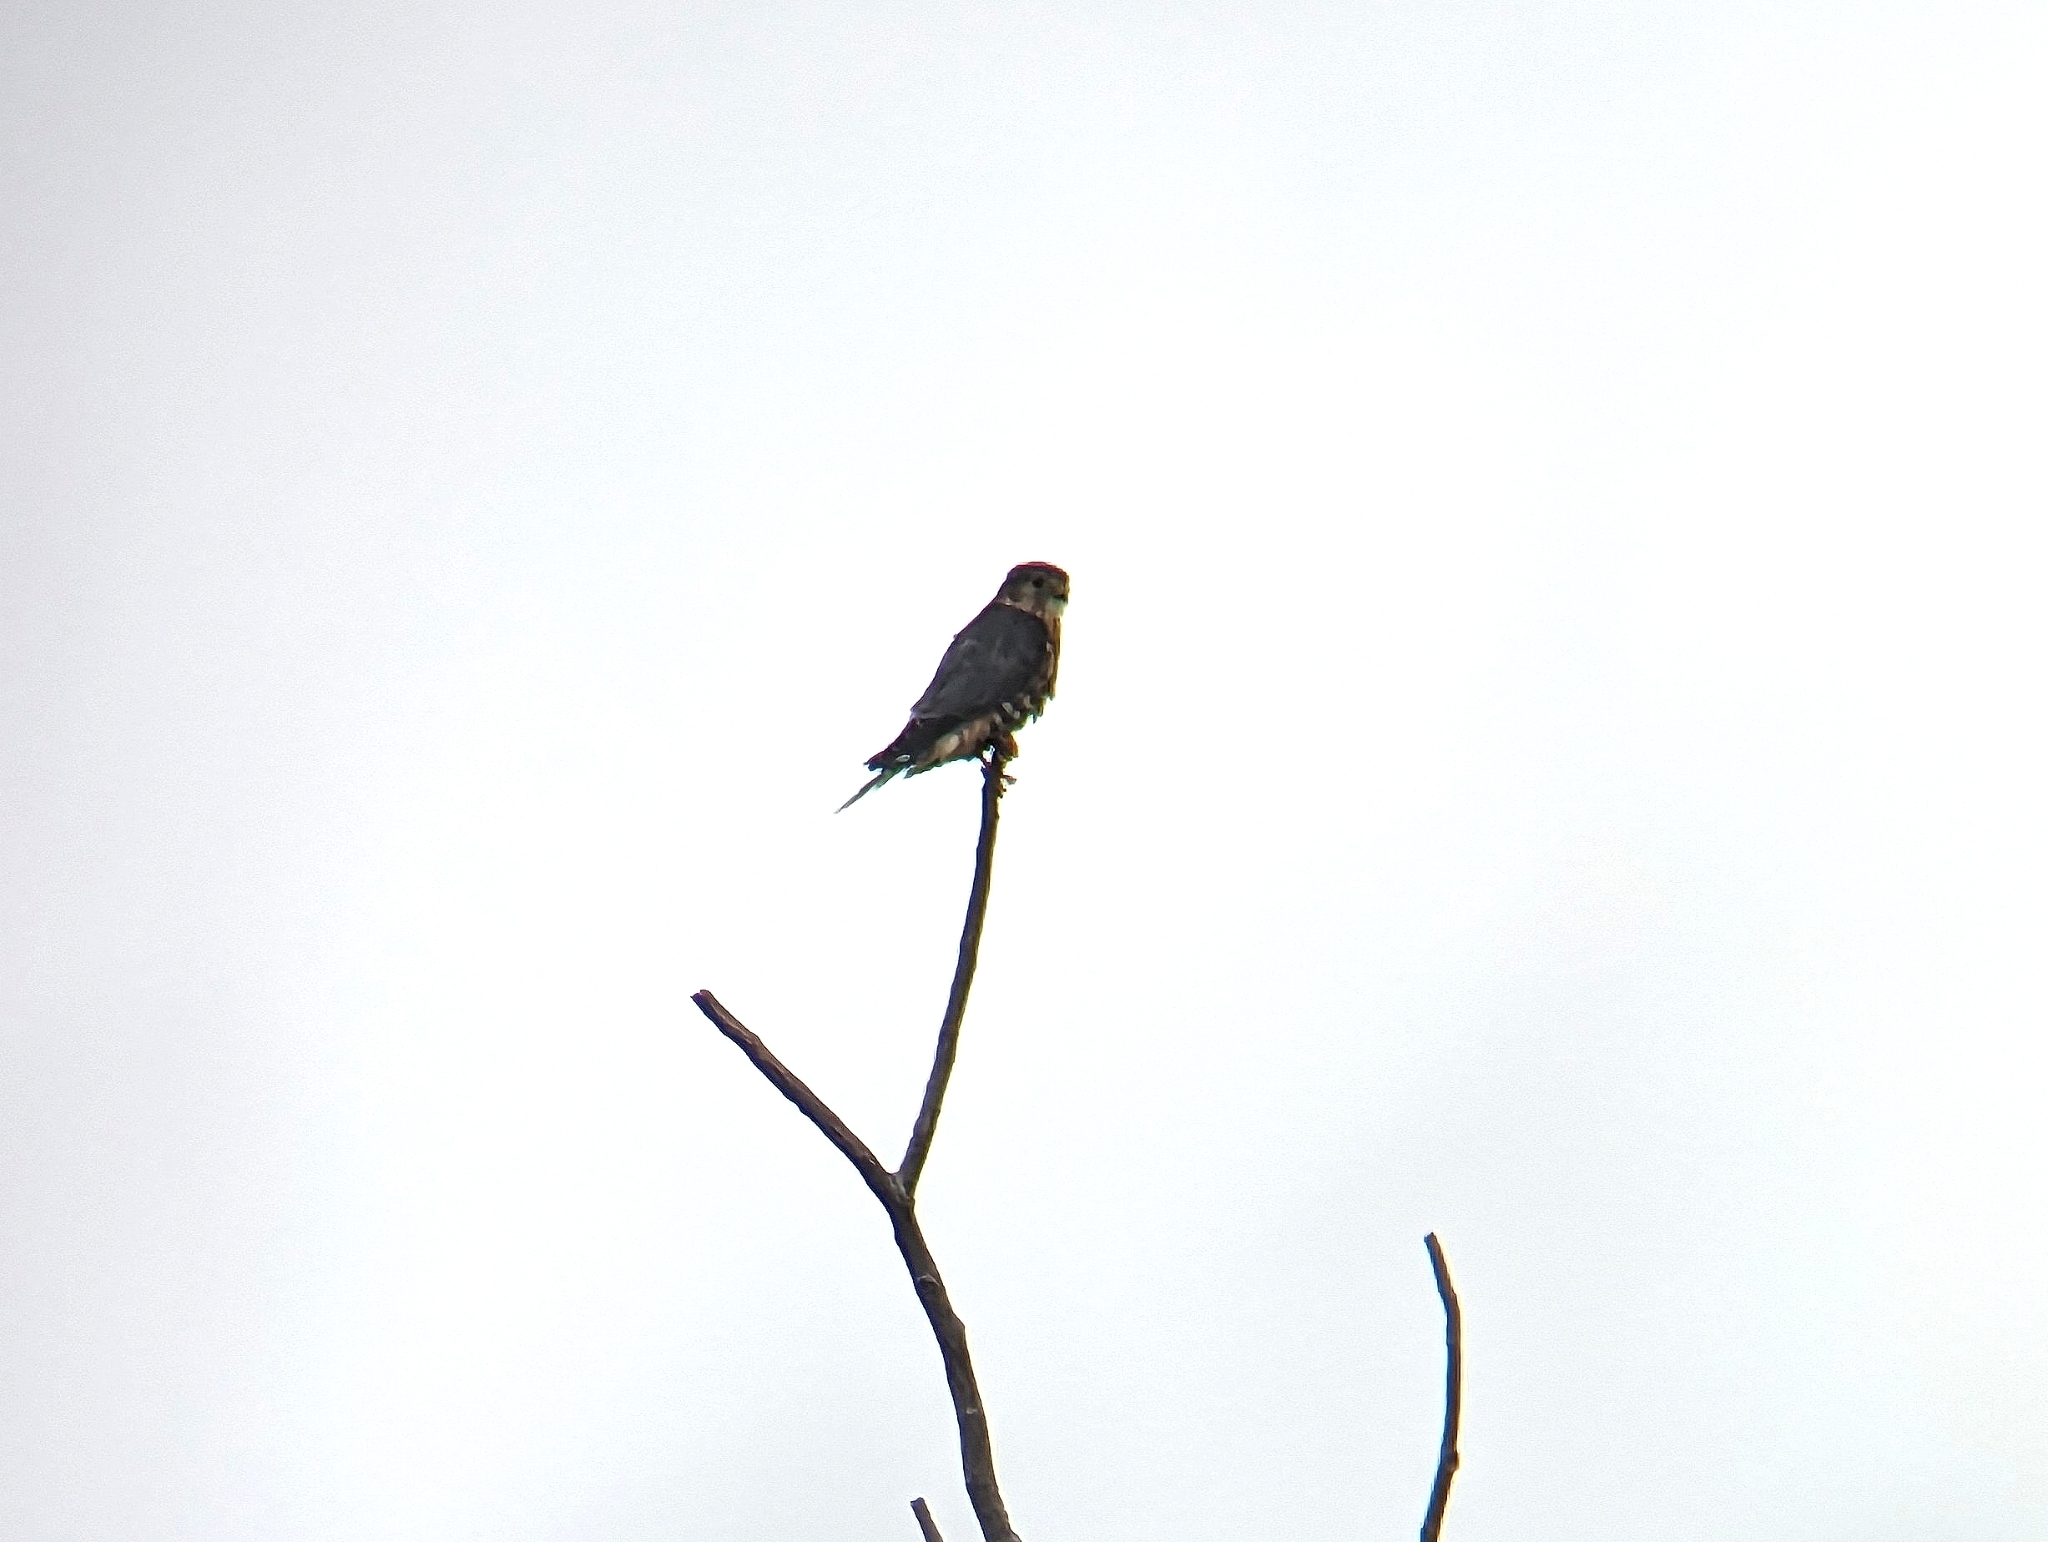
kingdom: Animalia
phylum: Chordata
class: Aves
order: Falconiformes
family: Falconidae
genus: Falco
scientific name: Falco columbarius
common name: Merlin
